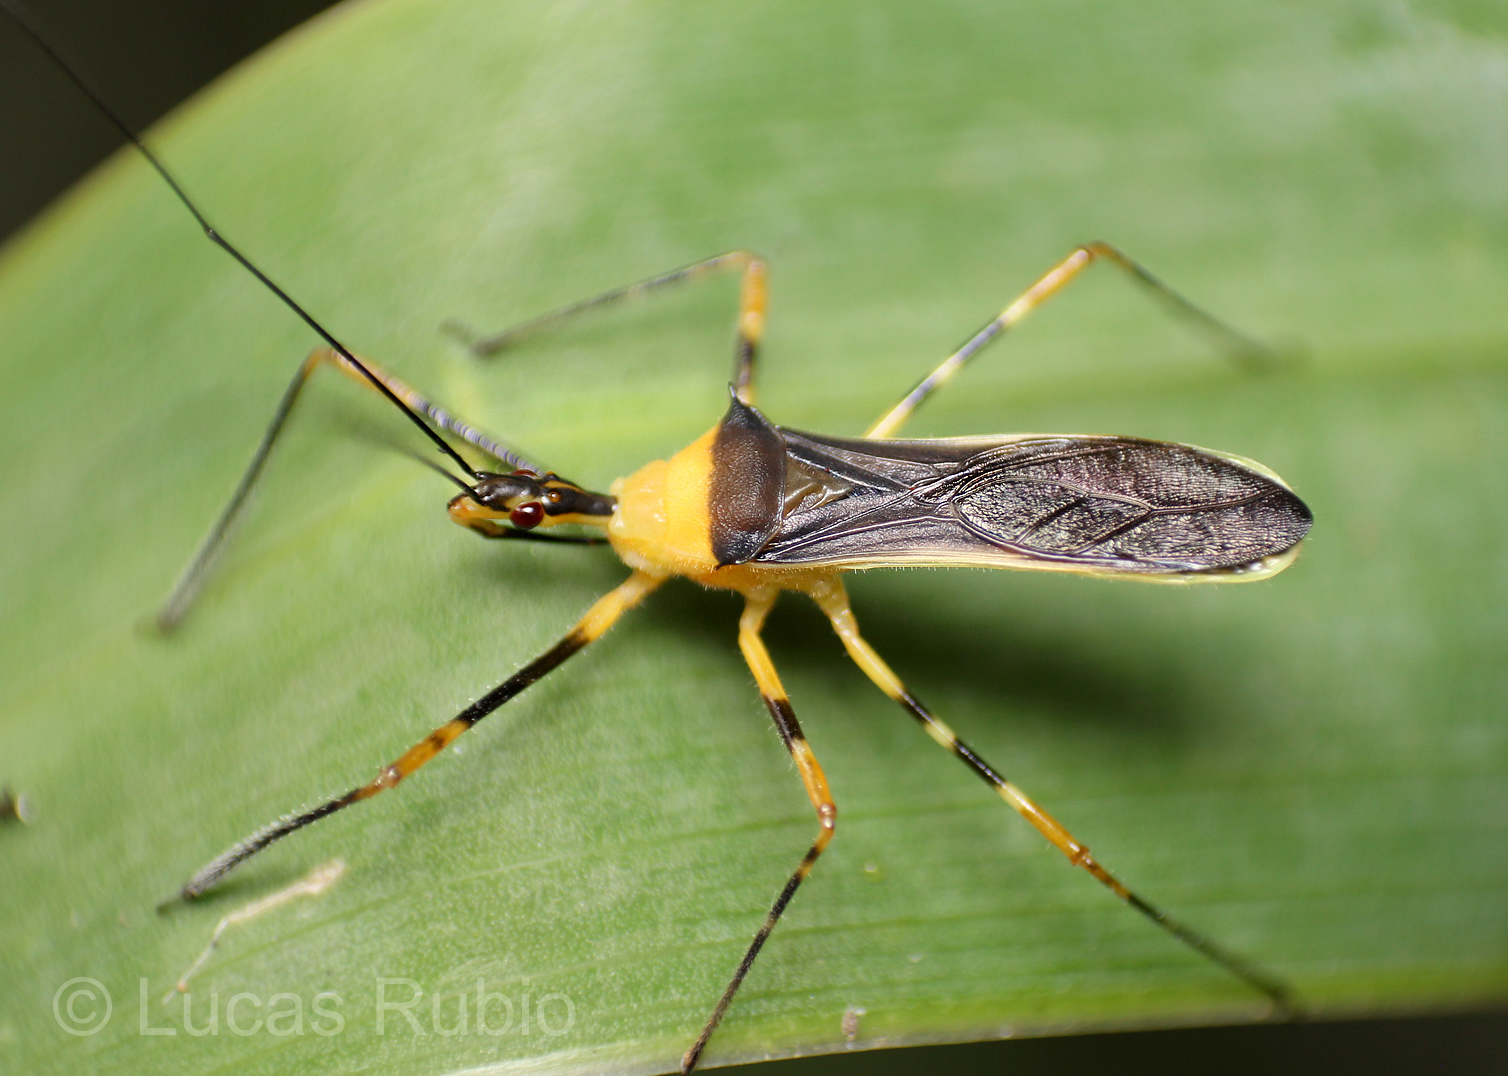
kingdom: Animalia
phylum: Arthropoda
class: Insecta
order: Hemiptera
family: Reduviidae
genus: Zelus
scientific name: Zelus versicolor
